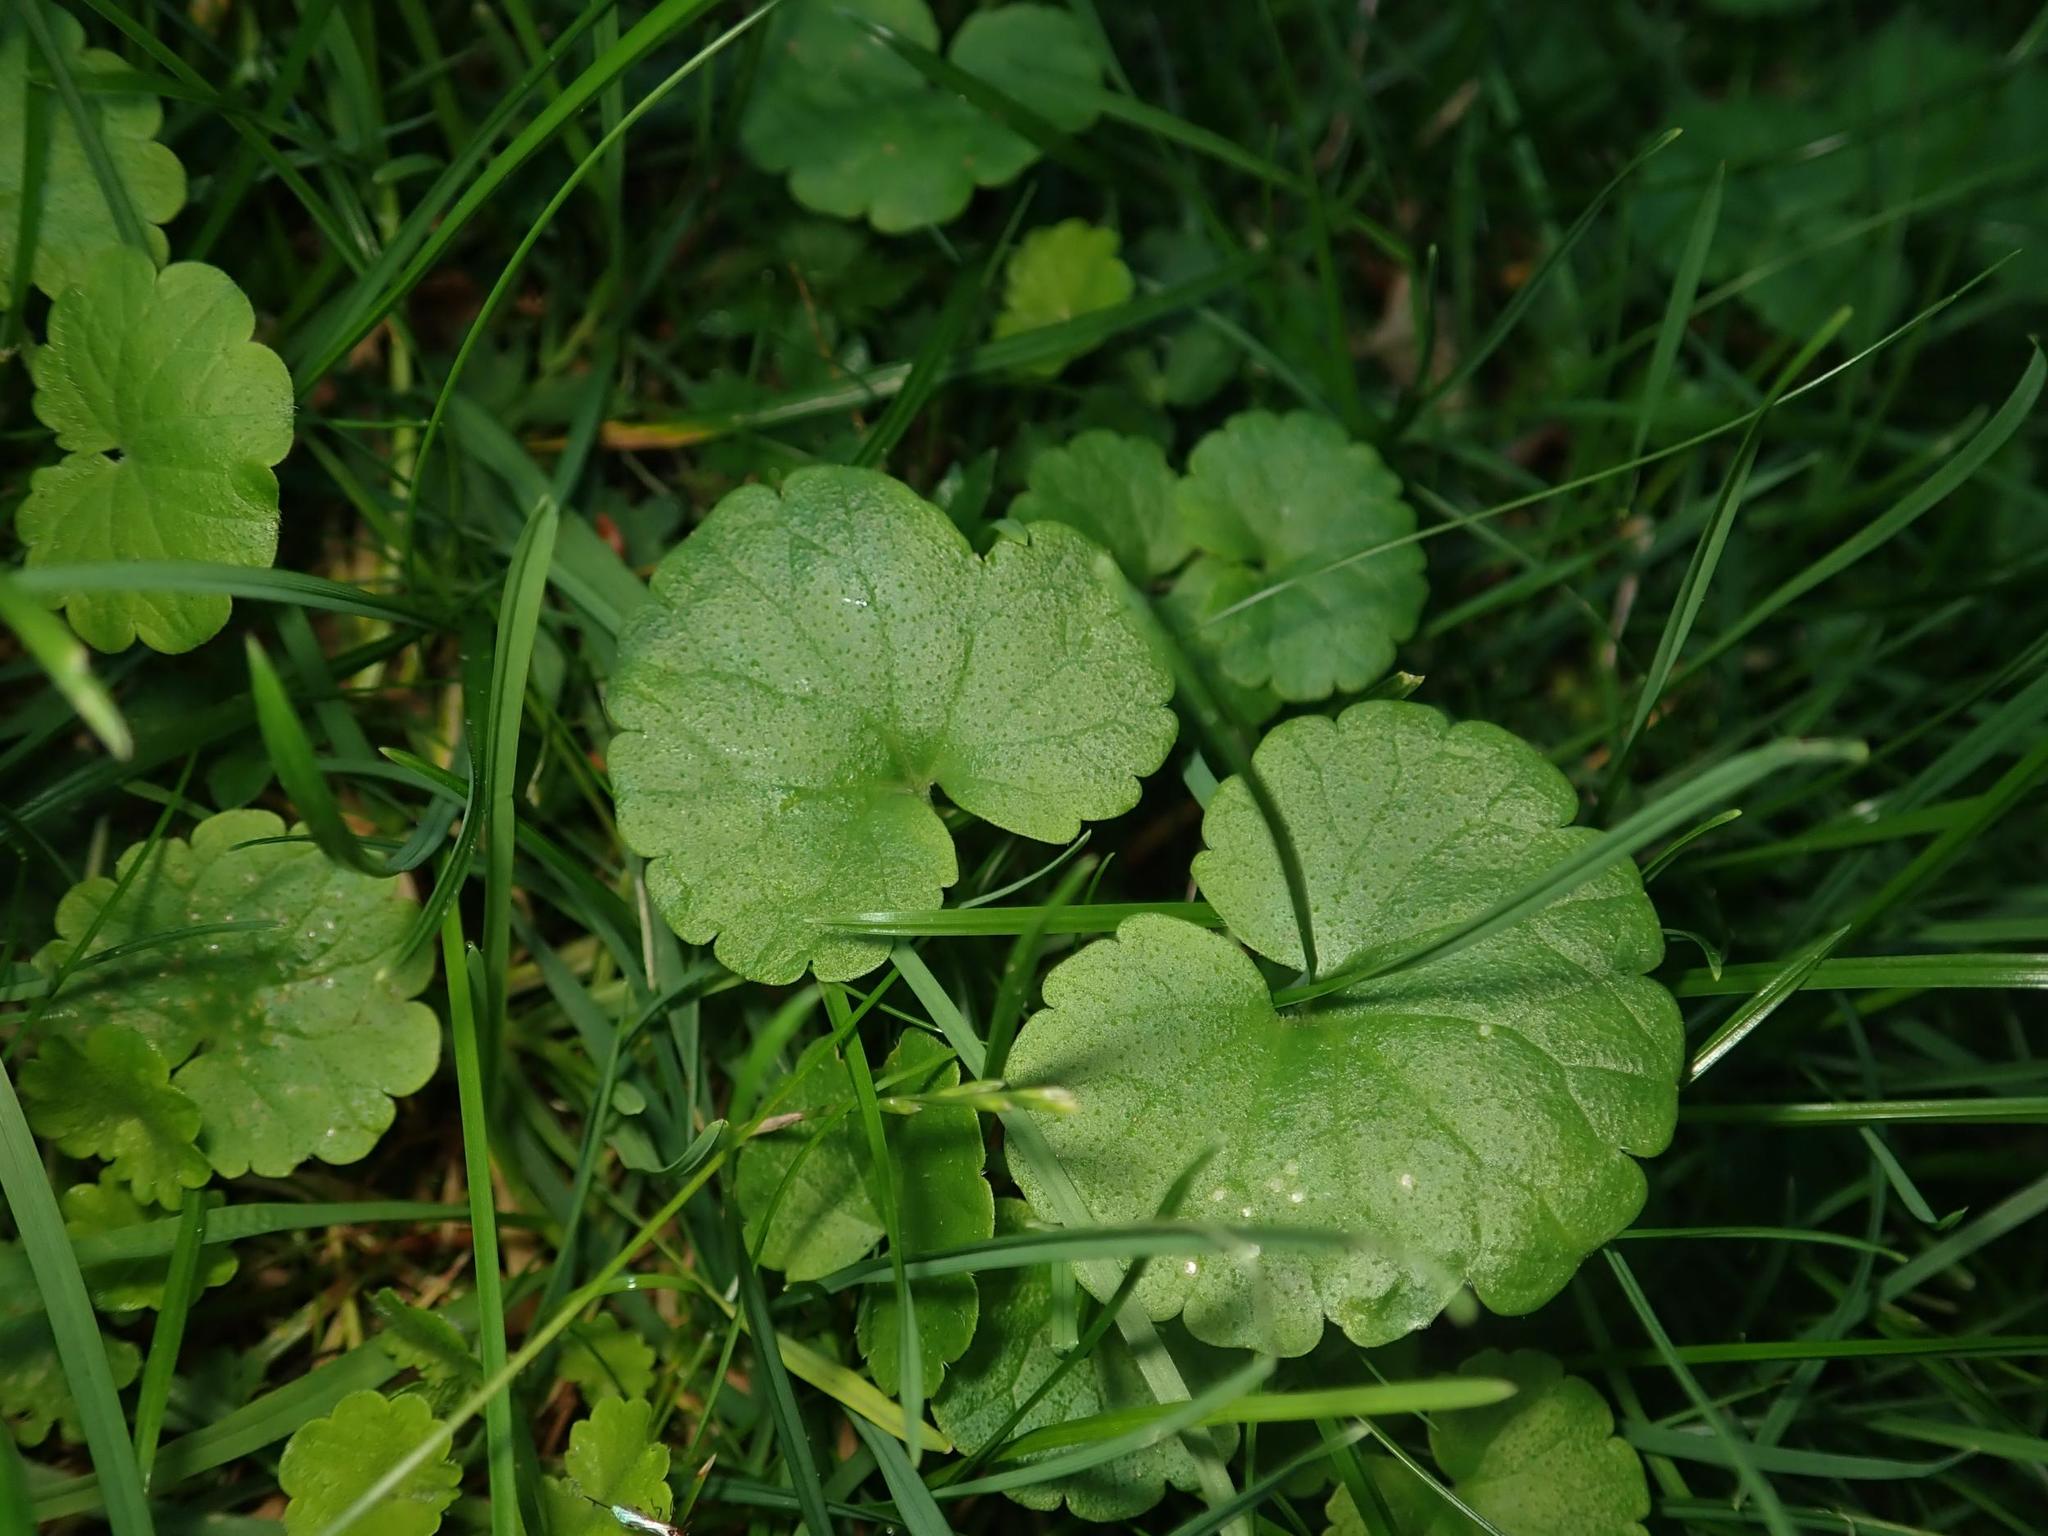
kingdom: Plantae
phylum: Tracheophyta
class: Magnoliopsida
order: Lamiales
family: Lamiaceae
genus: Glechoma
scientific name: Glechoma hederacea
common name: Ground ivy
